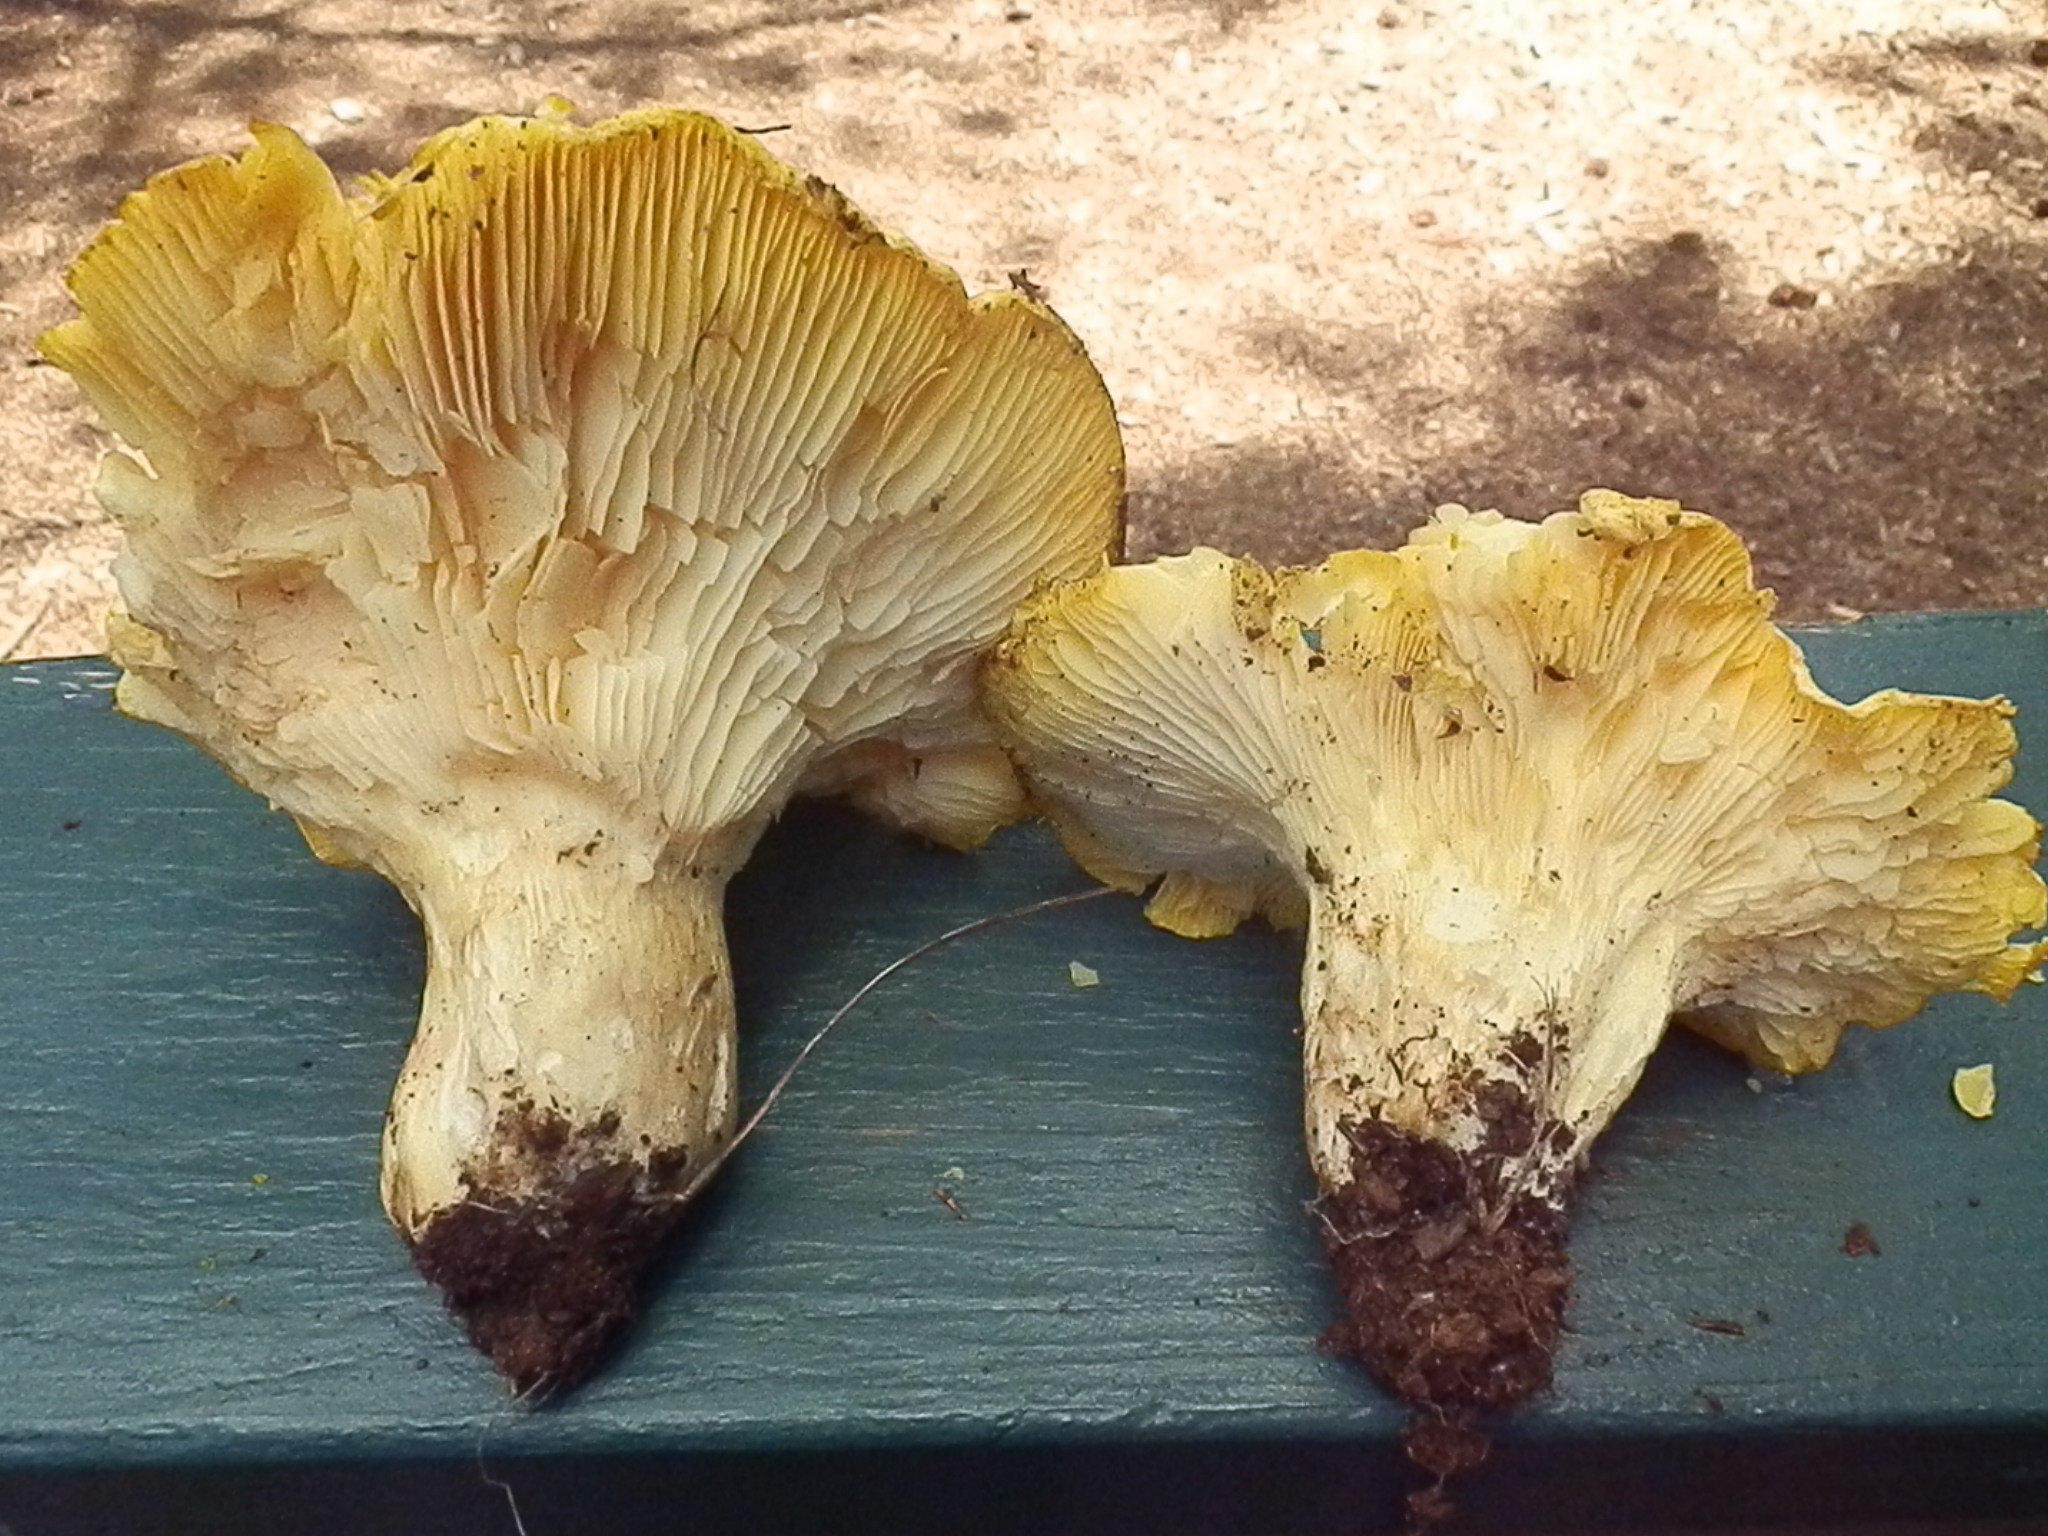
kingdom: Fungi
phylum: Basidiomycota
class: Agaricomycetes
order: Agaricales
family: Hygrophoraceae
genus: Cantharocybe
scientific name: Cantharocybe gruberi
